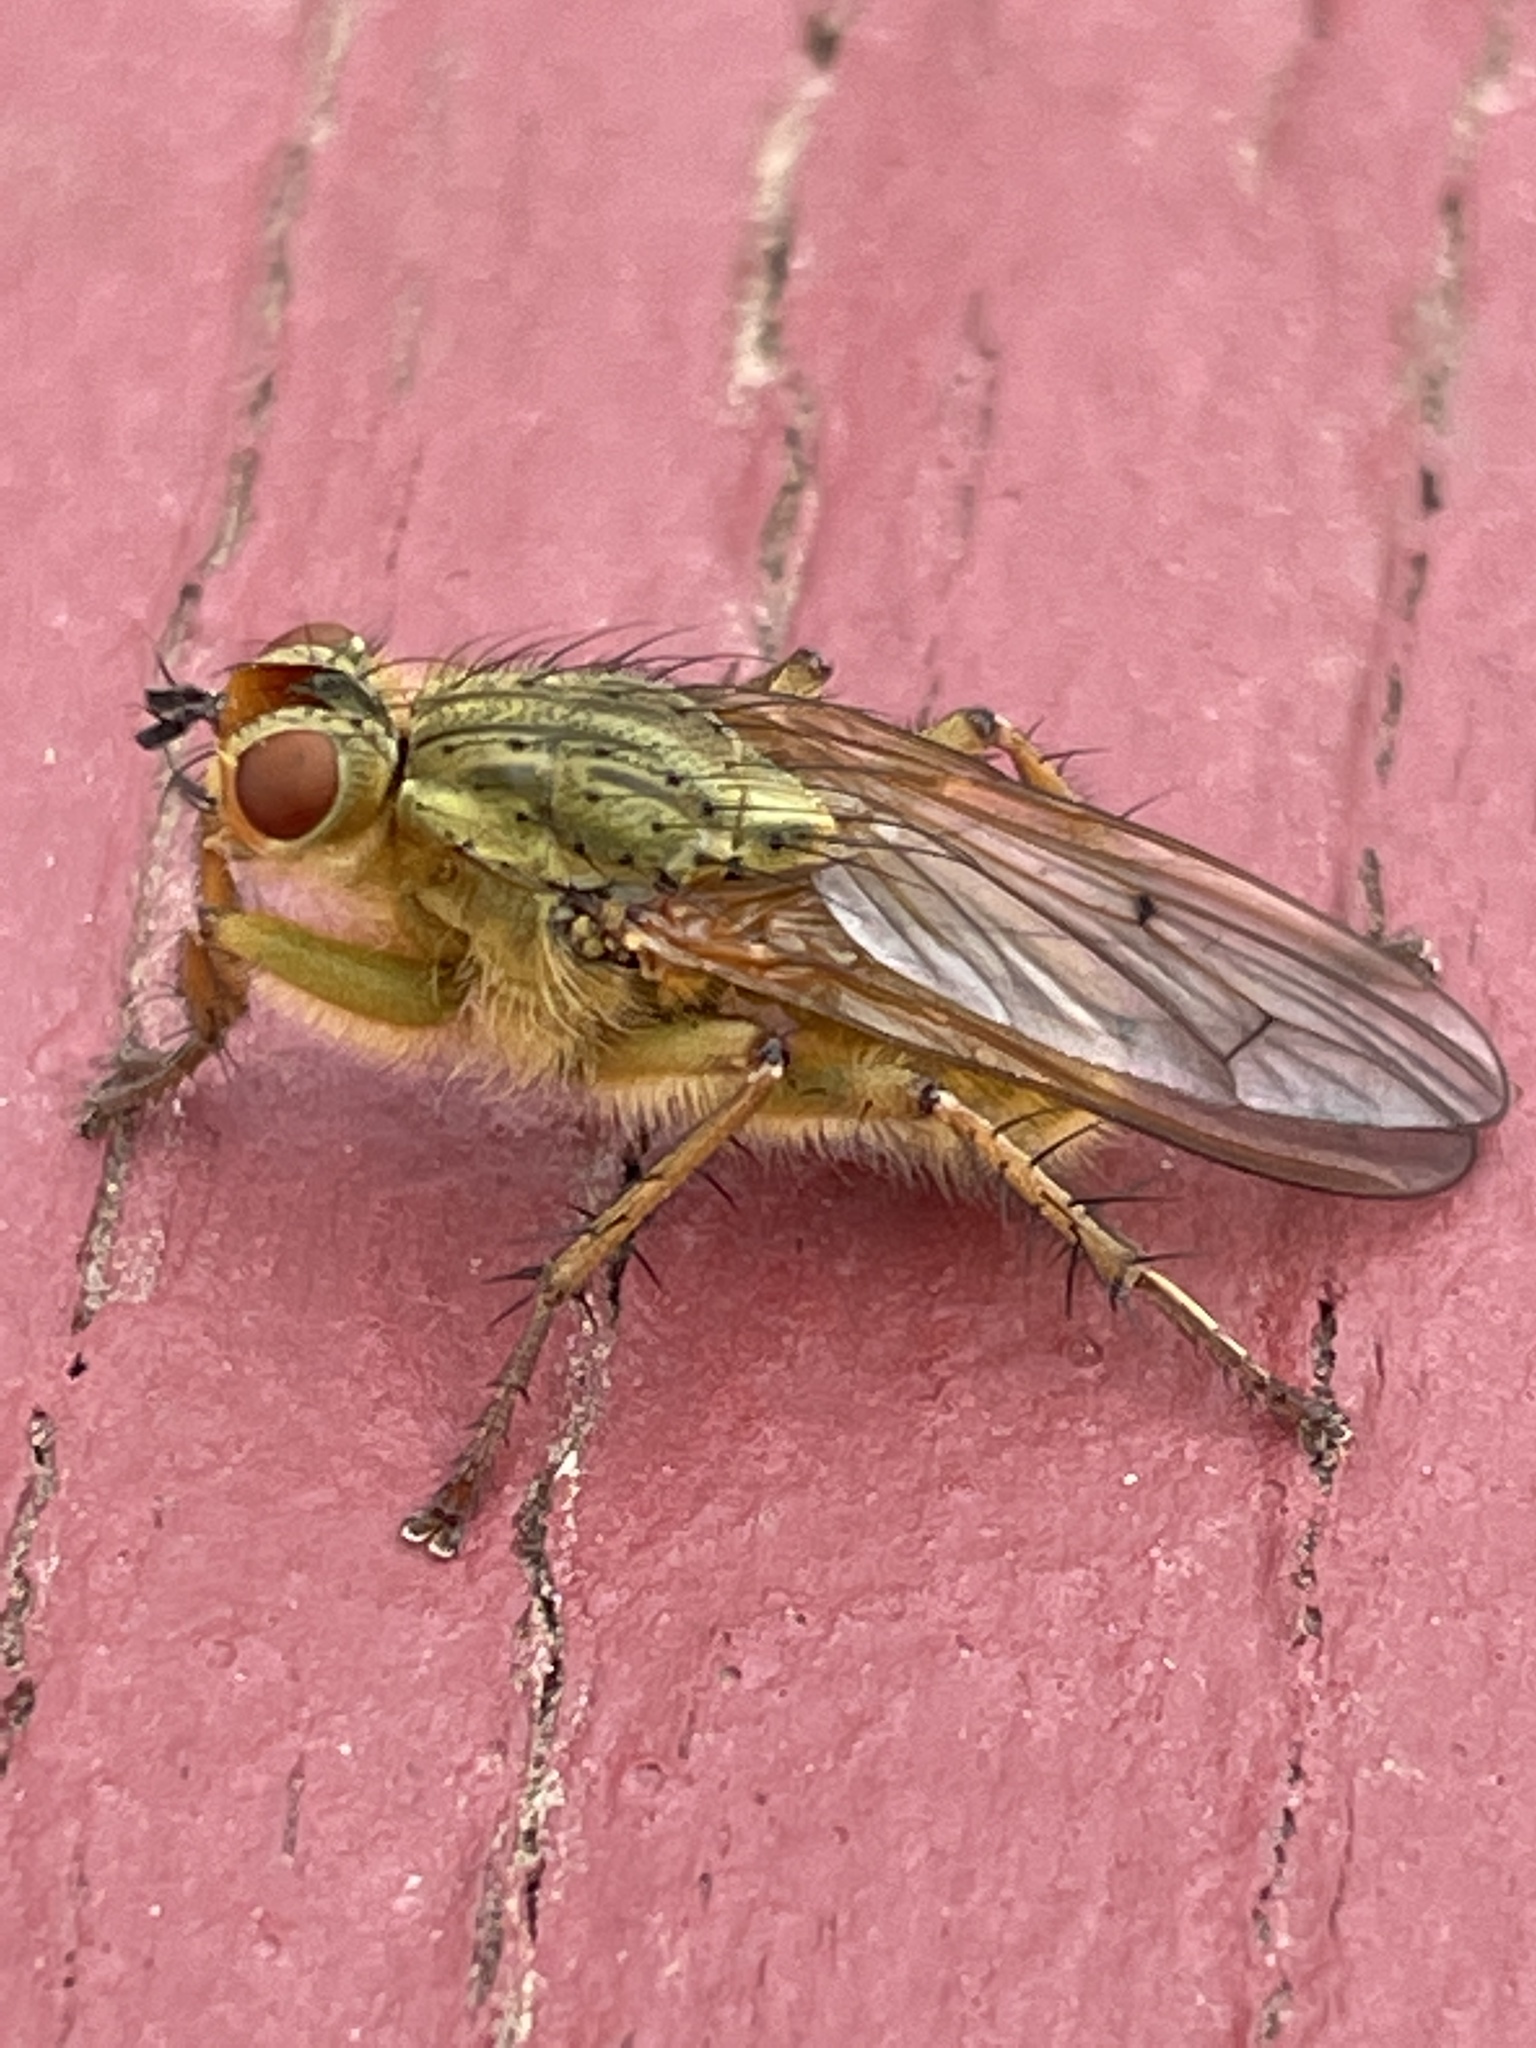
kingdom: Animalia
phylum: Arthropoda
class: Insecta
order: Diptera
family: Scathophagidae
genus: Scathophaga
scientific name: Scathophaga stercoraria
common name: Yellow dung fly
